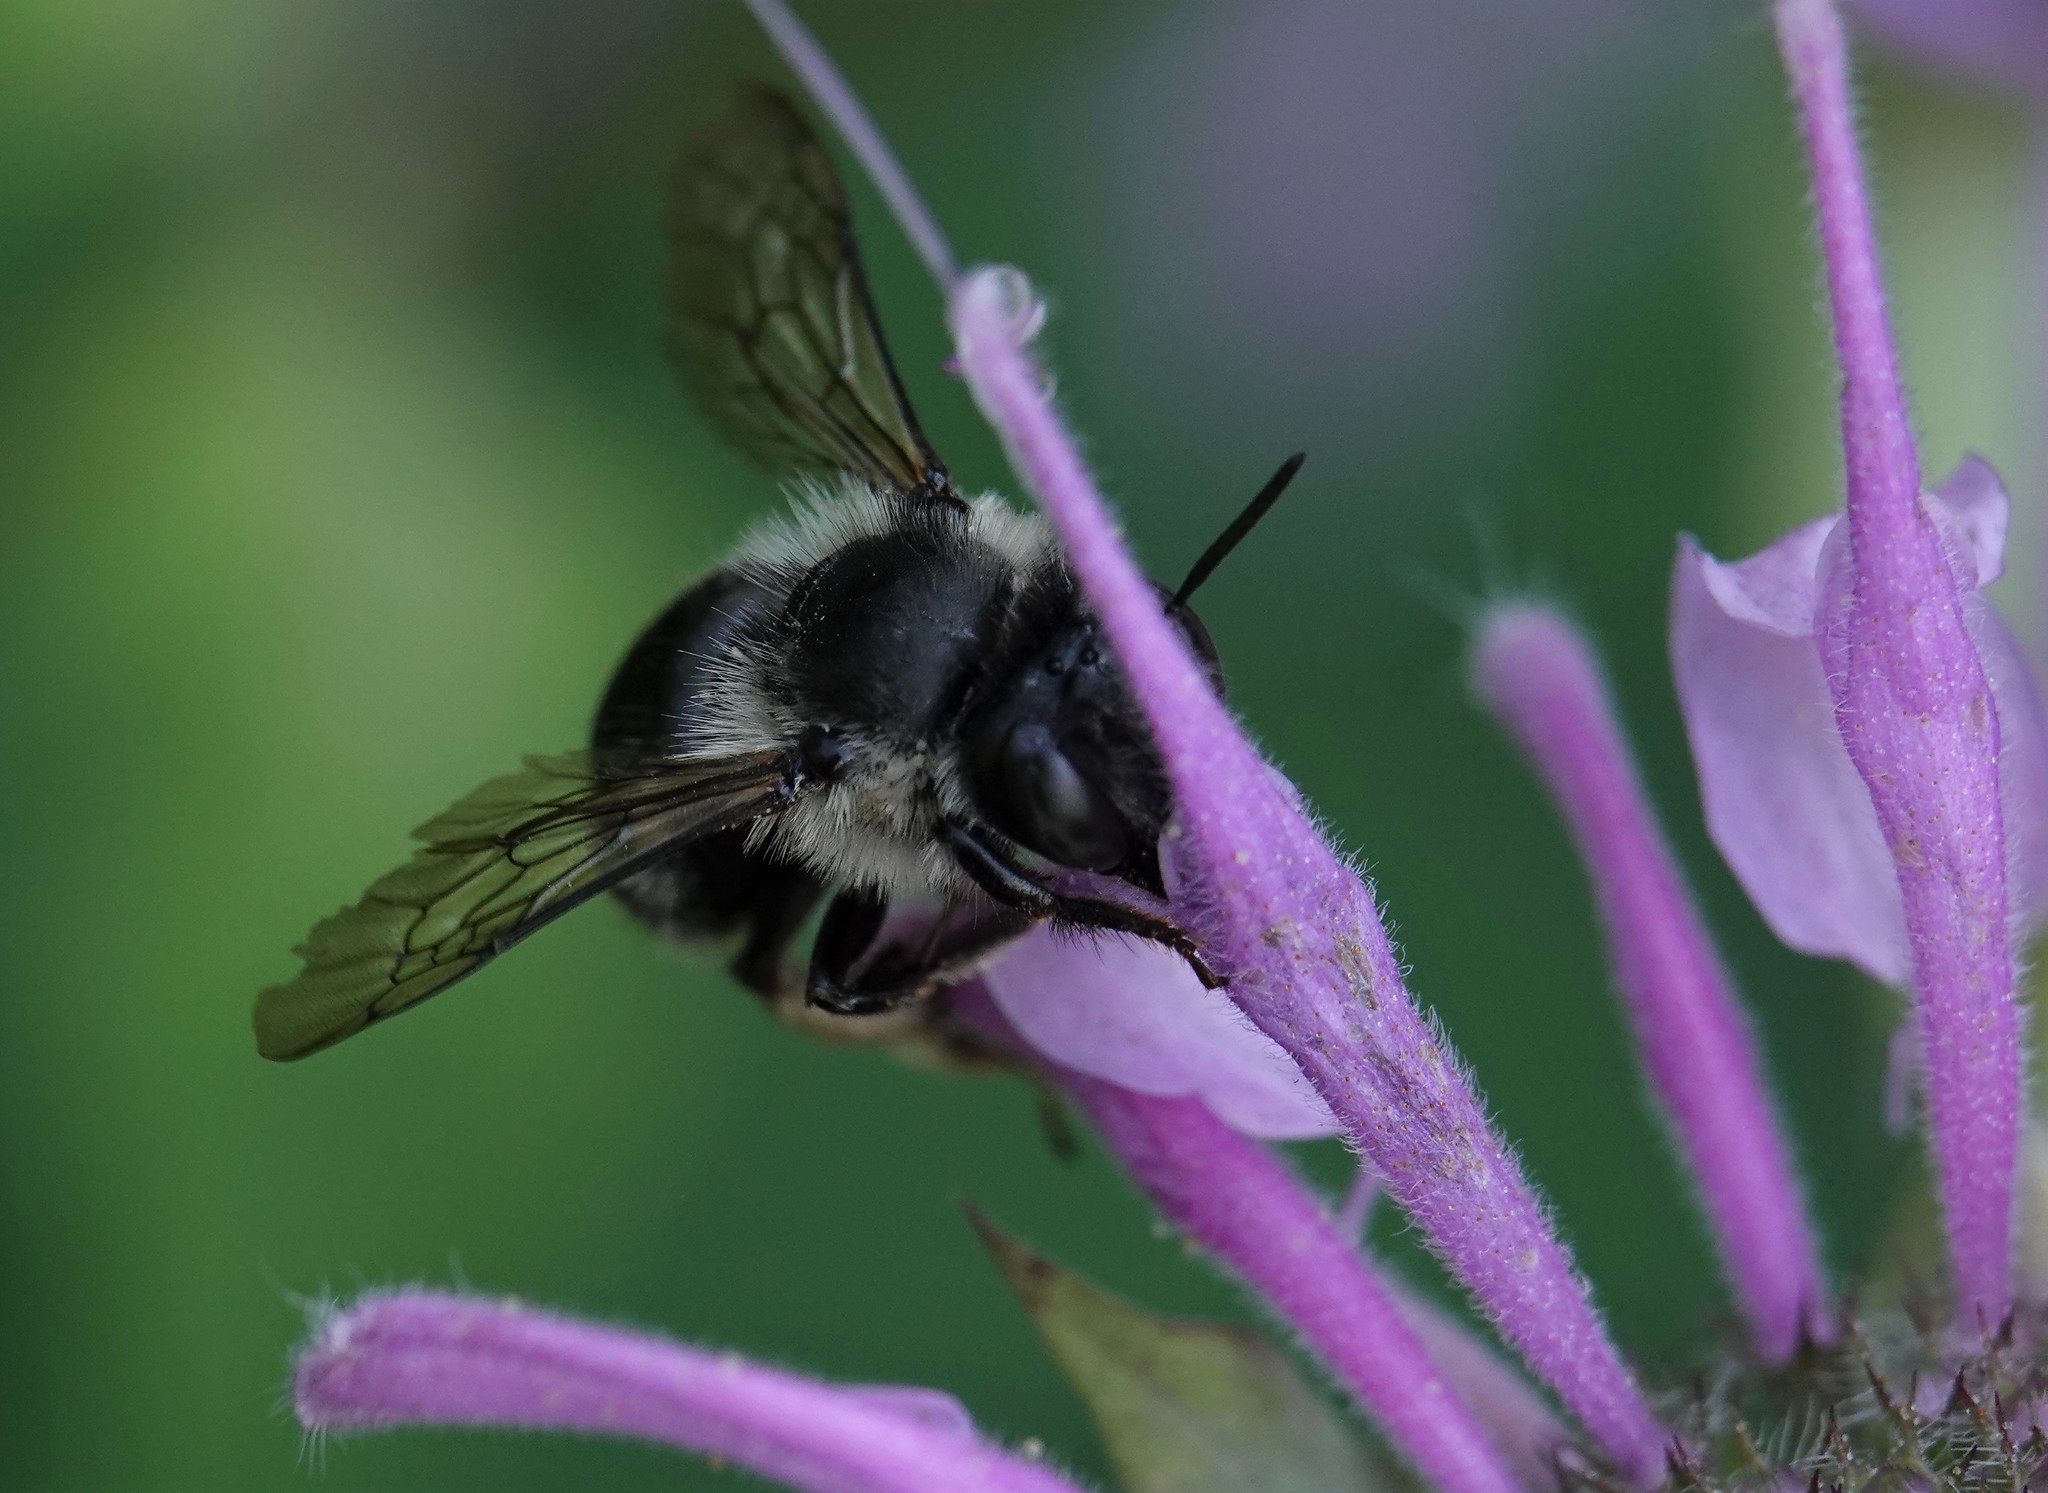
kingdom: Animalia
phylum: Arthropoda
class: Insecta
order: Hymenoptera
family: Apidae
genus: Anthophora
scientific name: Anthophora terminalis
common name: Orange-tipped wood-digger bee
